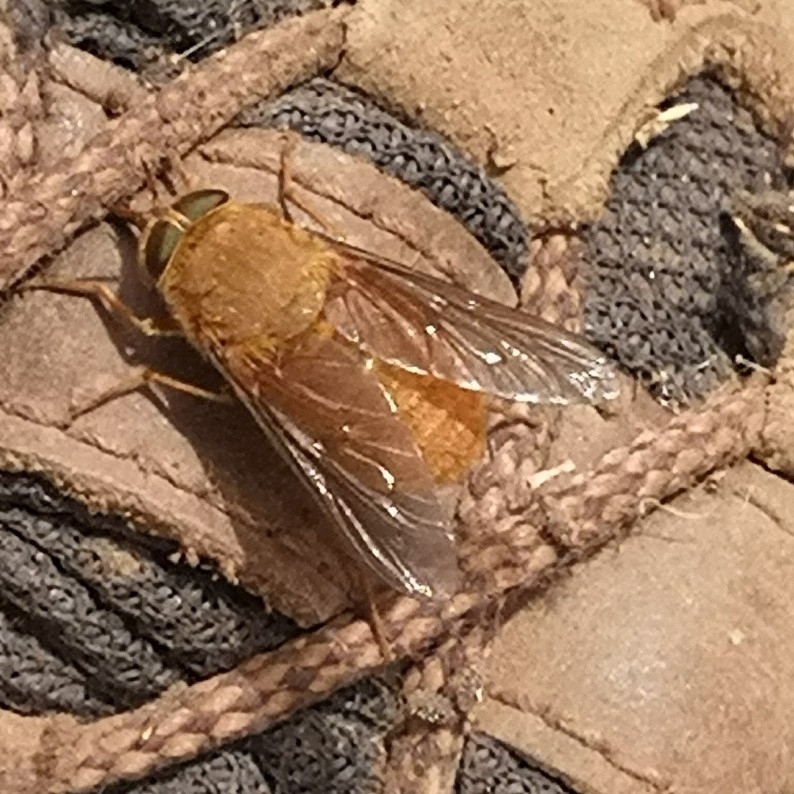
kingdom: Animalia
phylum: Arthropoda
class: Insecta
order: Diptera
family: Tabanidae
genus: Scaptia
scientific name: Scaptia
